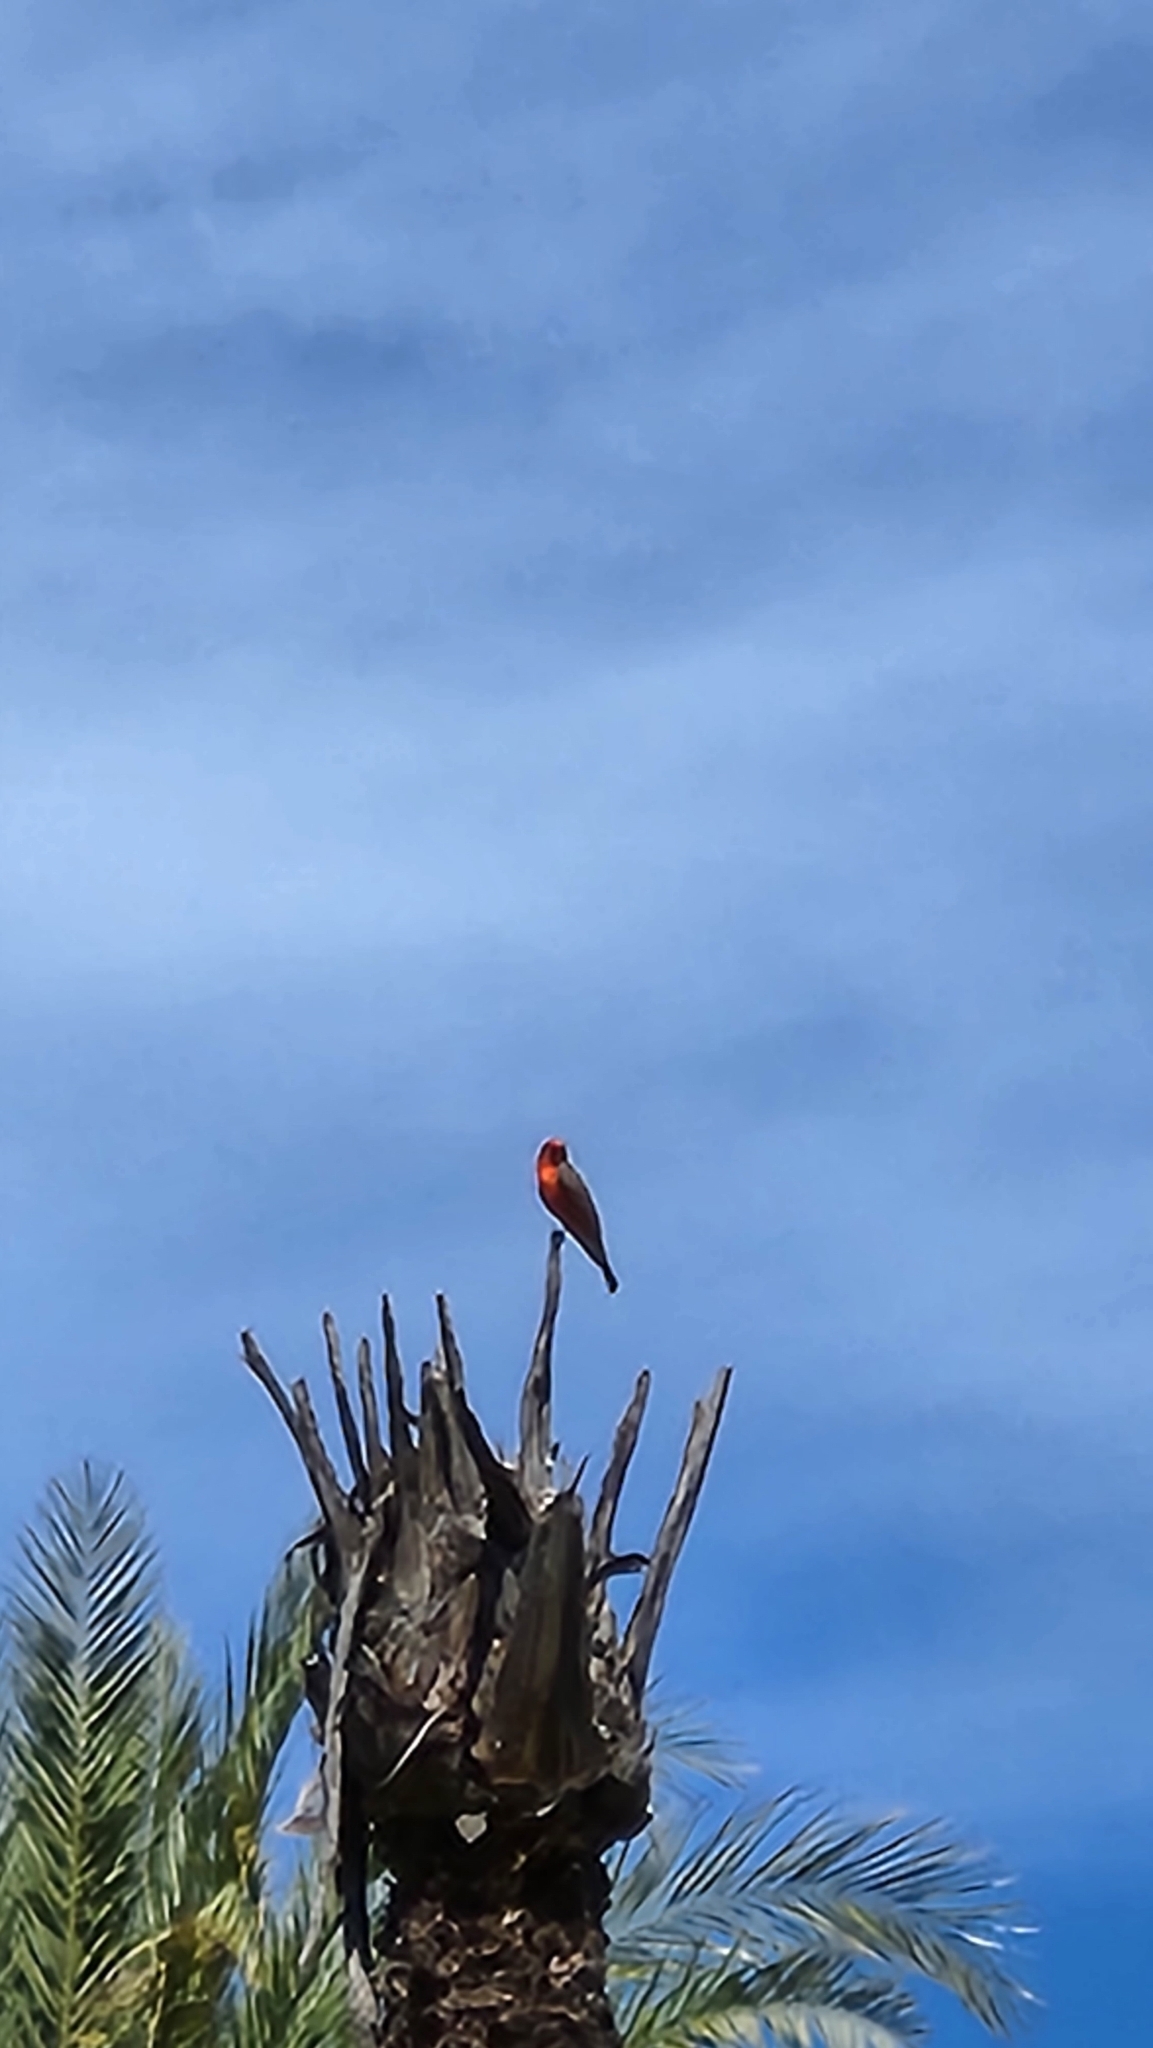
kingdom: Animalia
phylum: Chordata
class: Aves
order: Passeriformes
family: Tyrannidae
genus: Pyrocephalus
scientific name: Pyrocephalus rubinus
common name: Vermilion flycatcher
